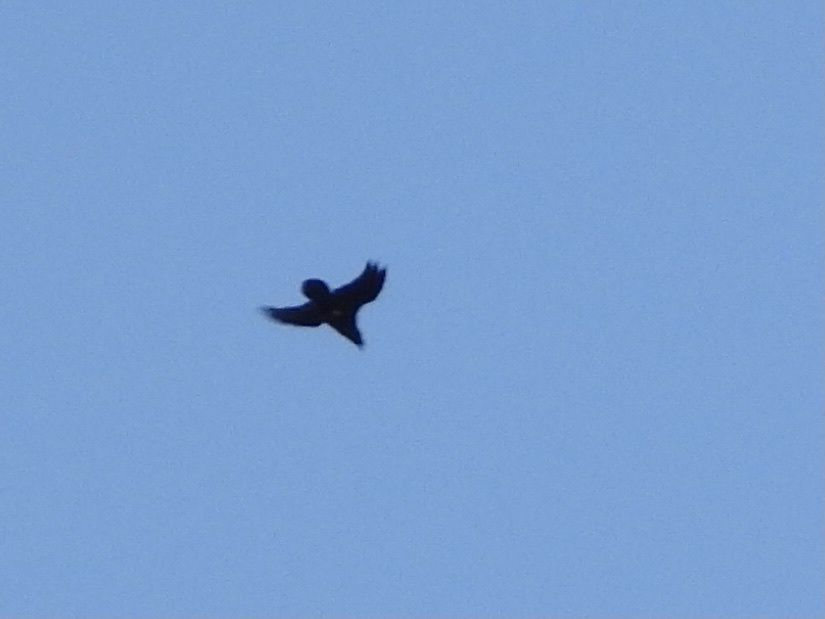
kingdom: Animalia
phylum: Chordata
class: Aves
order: Passeriformes
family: Corvidae
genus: Corvus
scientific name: Corvus corax
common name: Common raven
